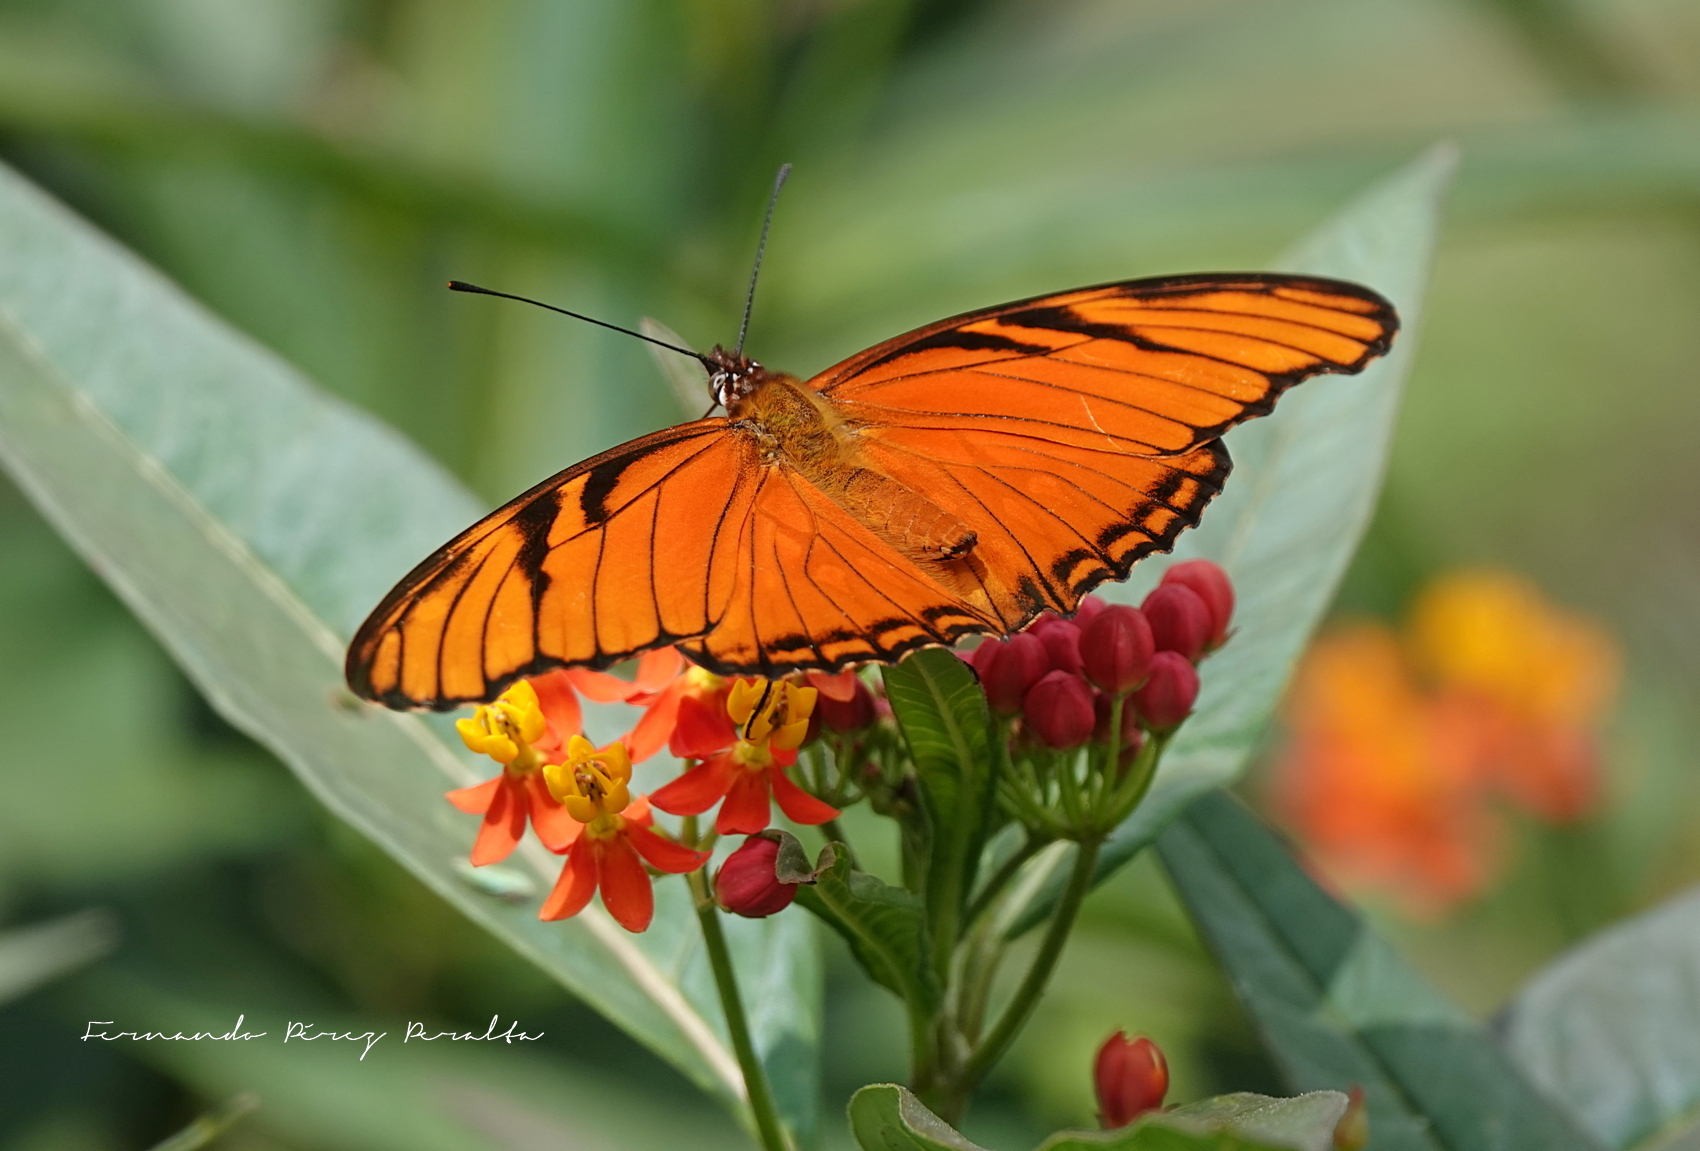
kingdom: Animalia
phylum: Arthropoda
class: Insecta
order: Lepidoptera
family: Nymphalidae
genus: Dione
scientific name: Dione juno
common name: Juno silverspot
